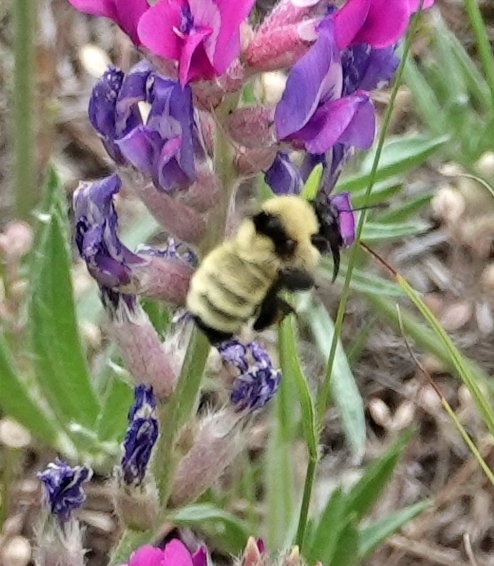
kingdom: Animalia
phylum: Arthropoda
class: Insecta
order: Hymenoptera
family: Apidae
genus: Bombus
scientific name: Bombus fervidus
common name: Yellow bumble bee
